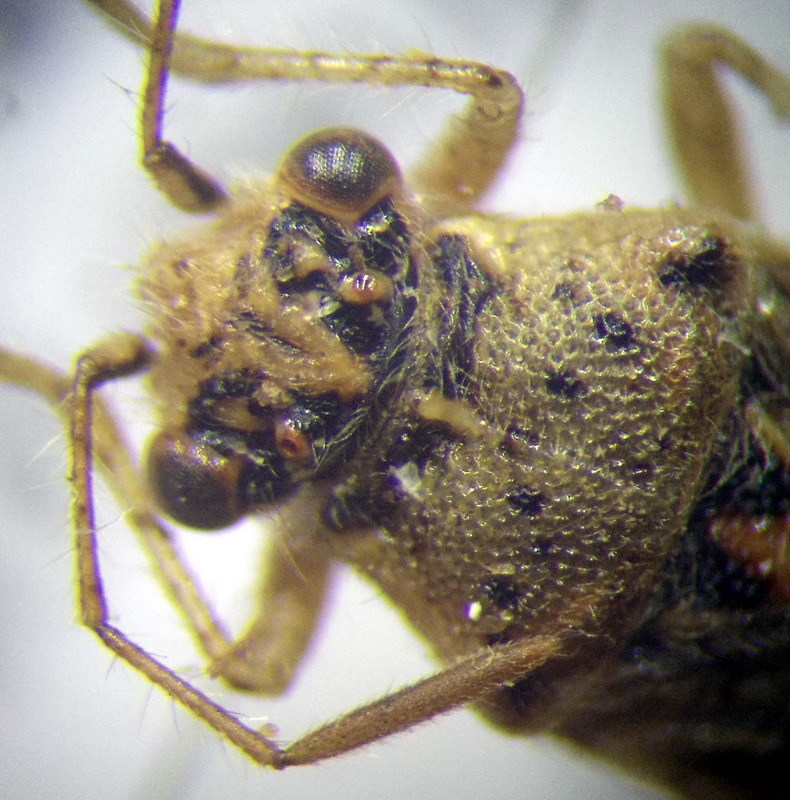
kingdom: Animalia
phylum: Arthropoda
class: Insecta
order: Hemiptera
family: Rhopalidae
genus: Brachycarenus
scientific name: Brachycarenus tigrinus
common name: Scentless plant bug
